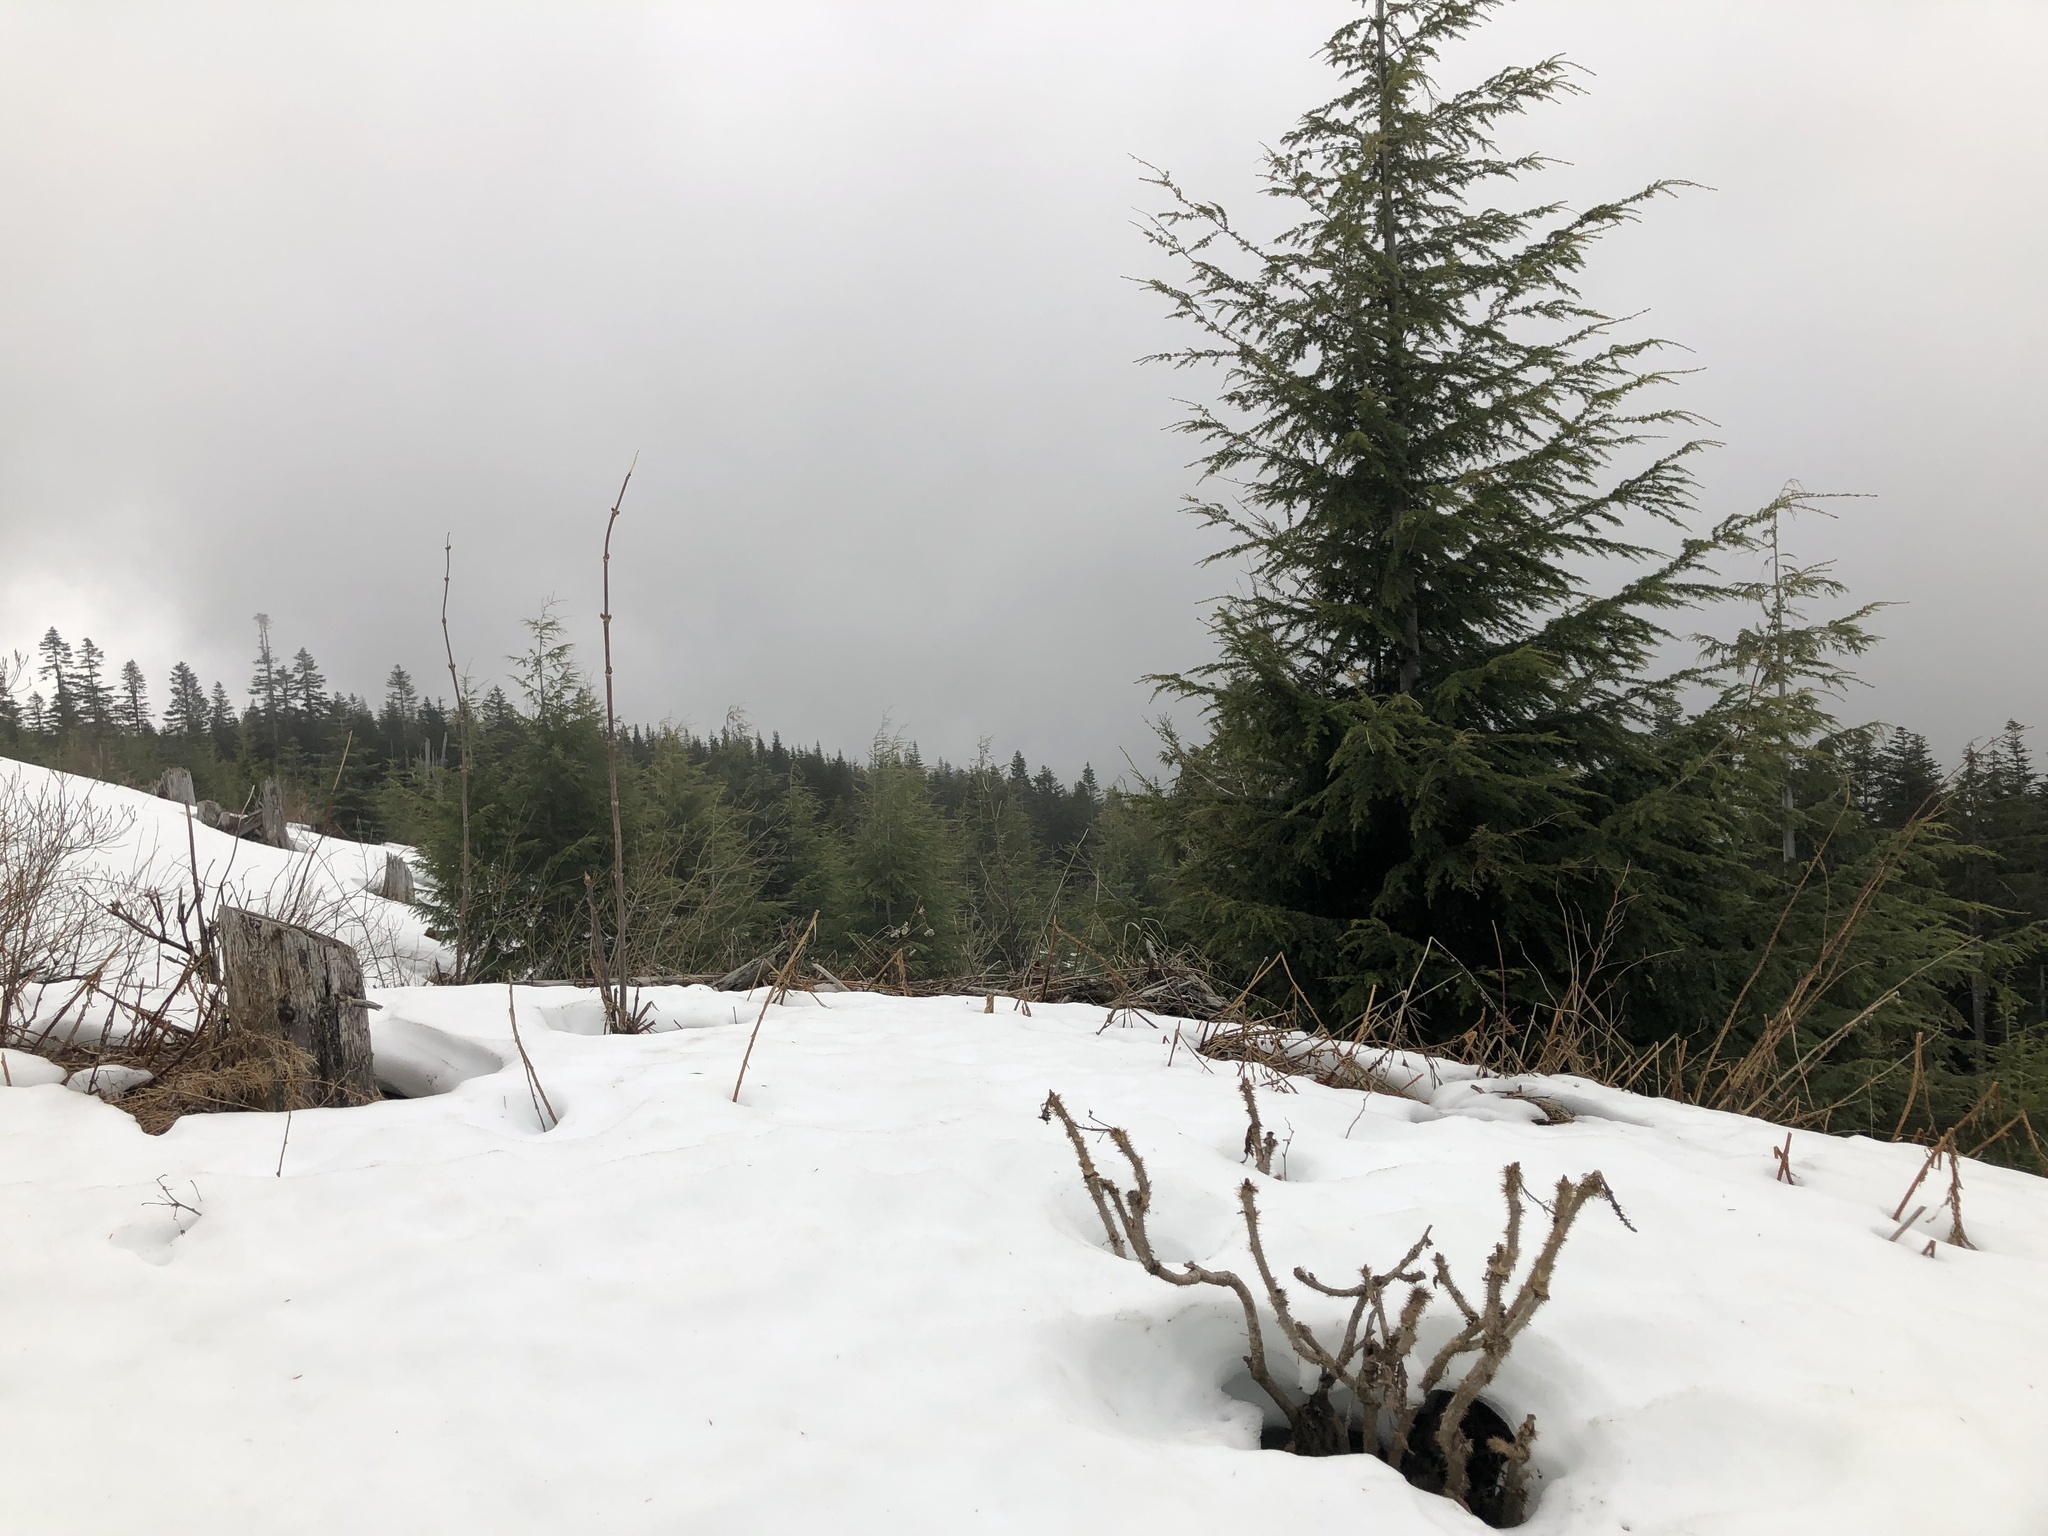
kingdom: Plantae
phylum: Tracheophyta
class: Magnoliopsida
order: Apiales
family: Araliaceae
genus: Oplopanax
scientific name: Oplopanax horridus
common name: Devil's walking-stick
